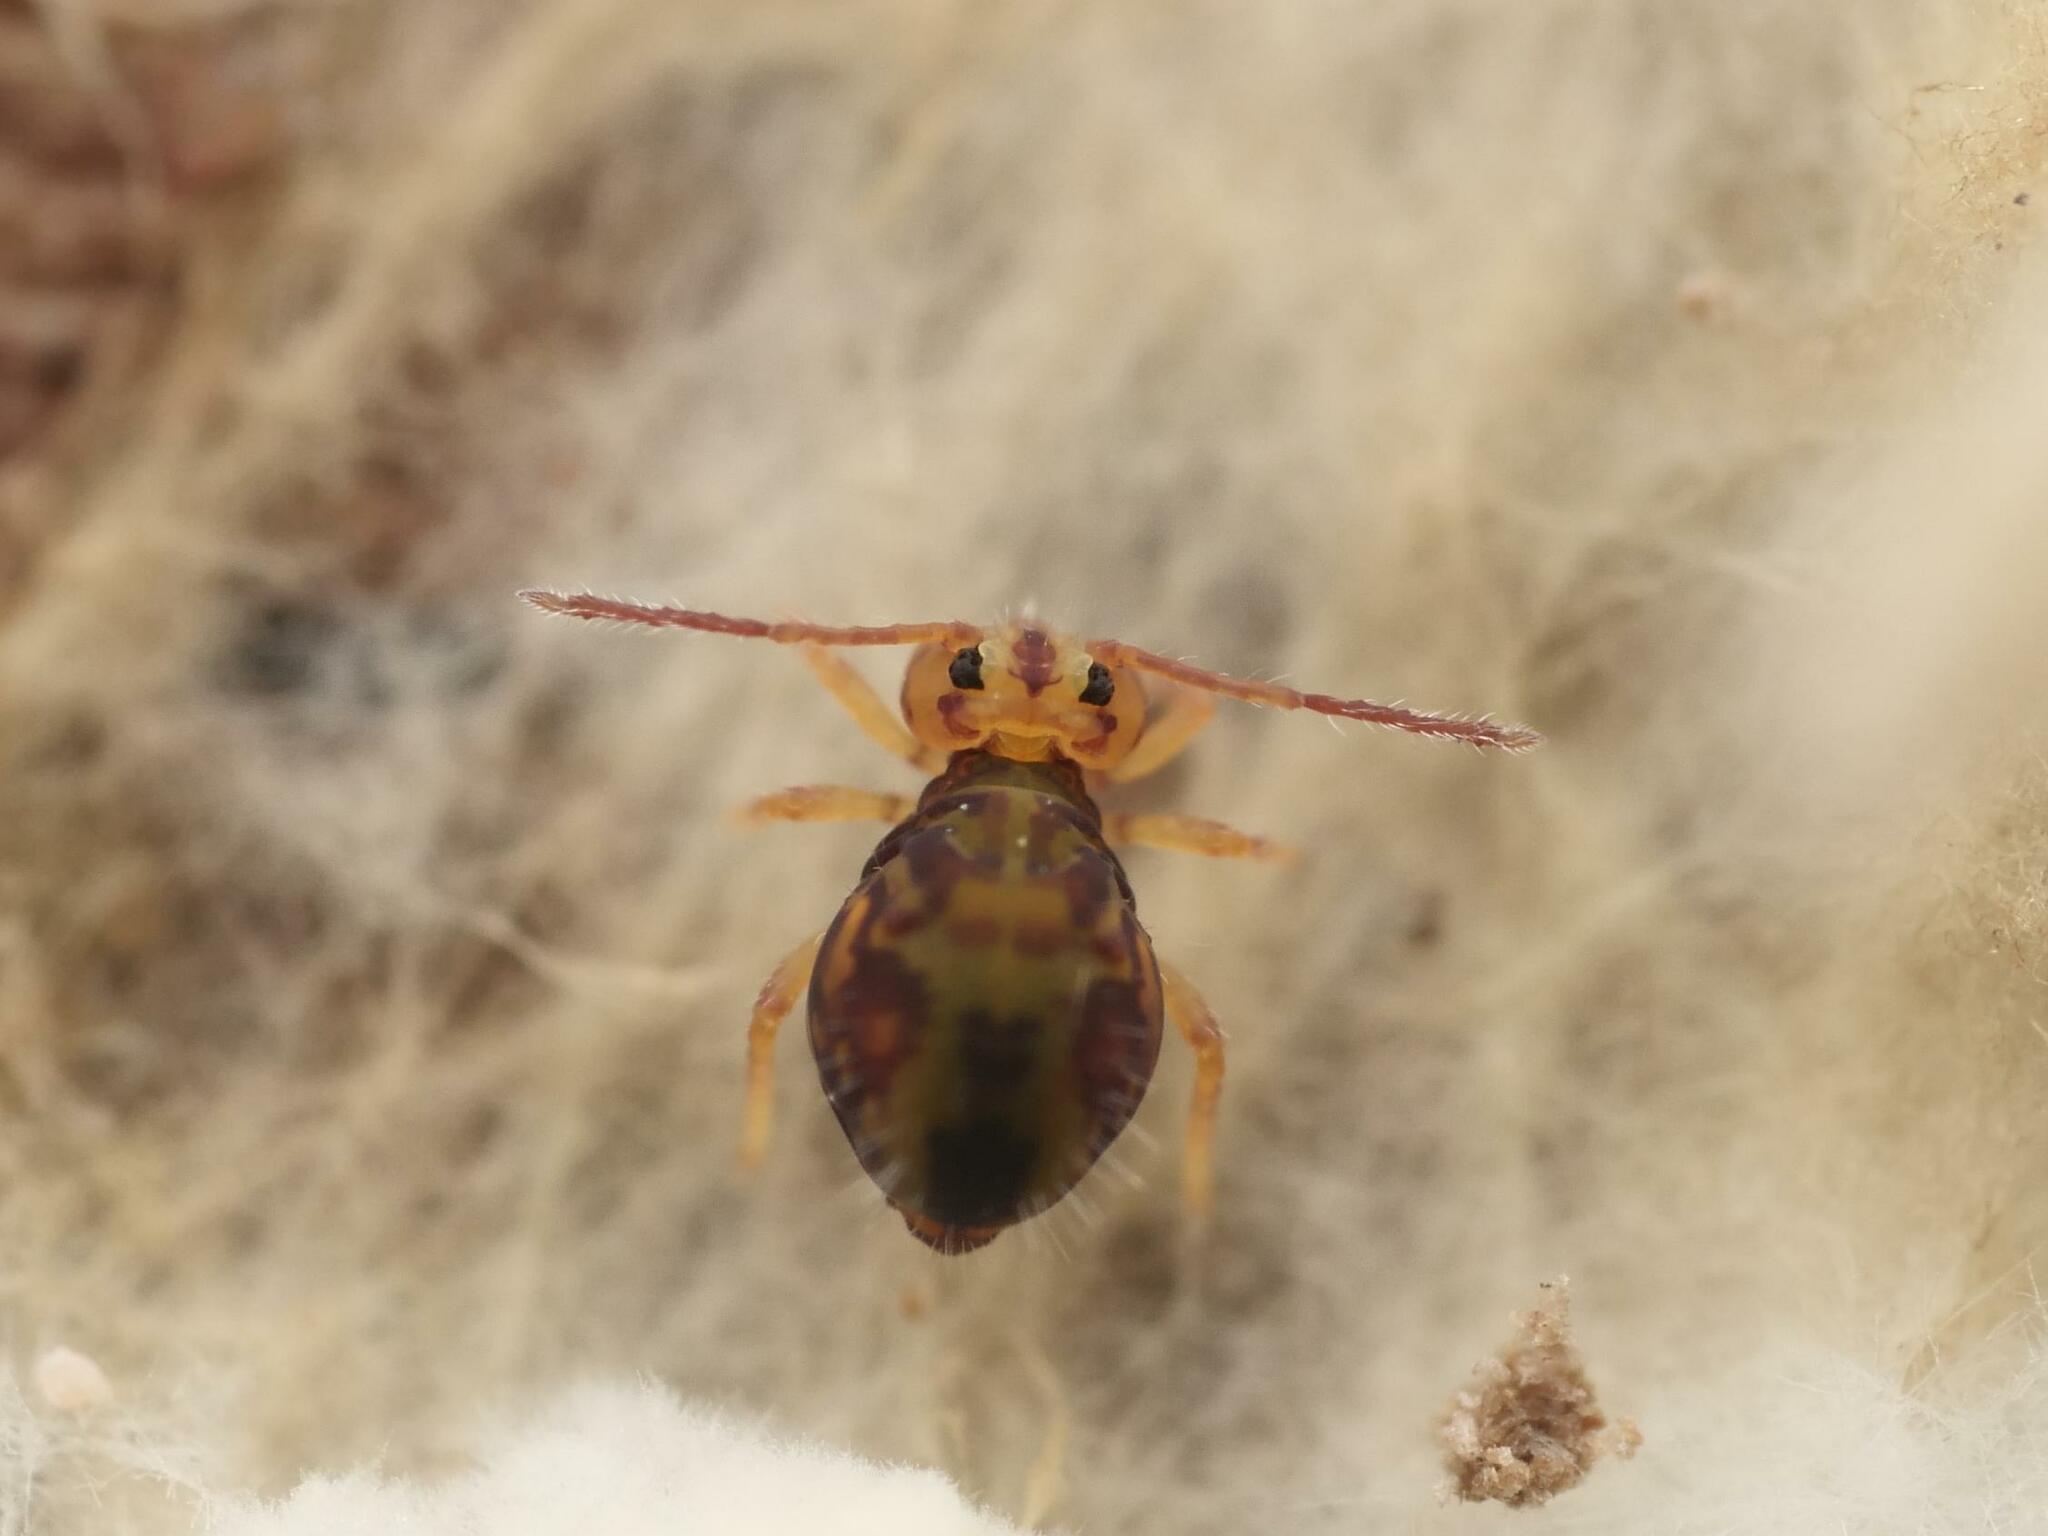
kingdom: Animalia
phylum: Arthropoda
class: Collembola
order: Symphypleona
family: Dicyrtomidae
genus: Dicyrtomina
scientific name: Dicyrtomina ornata
